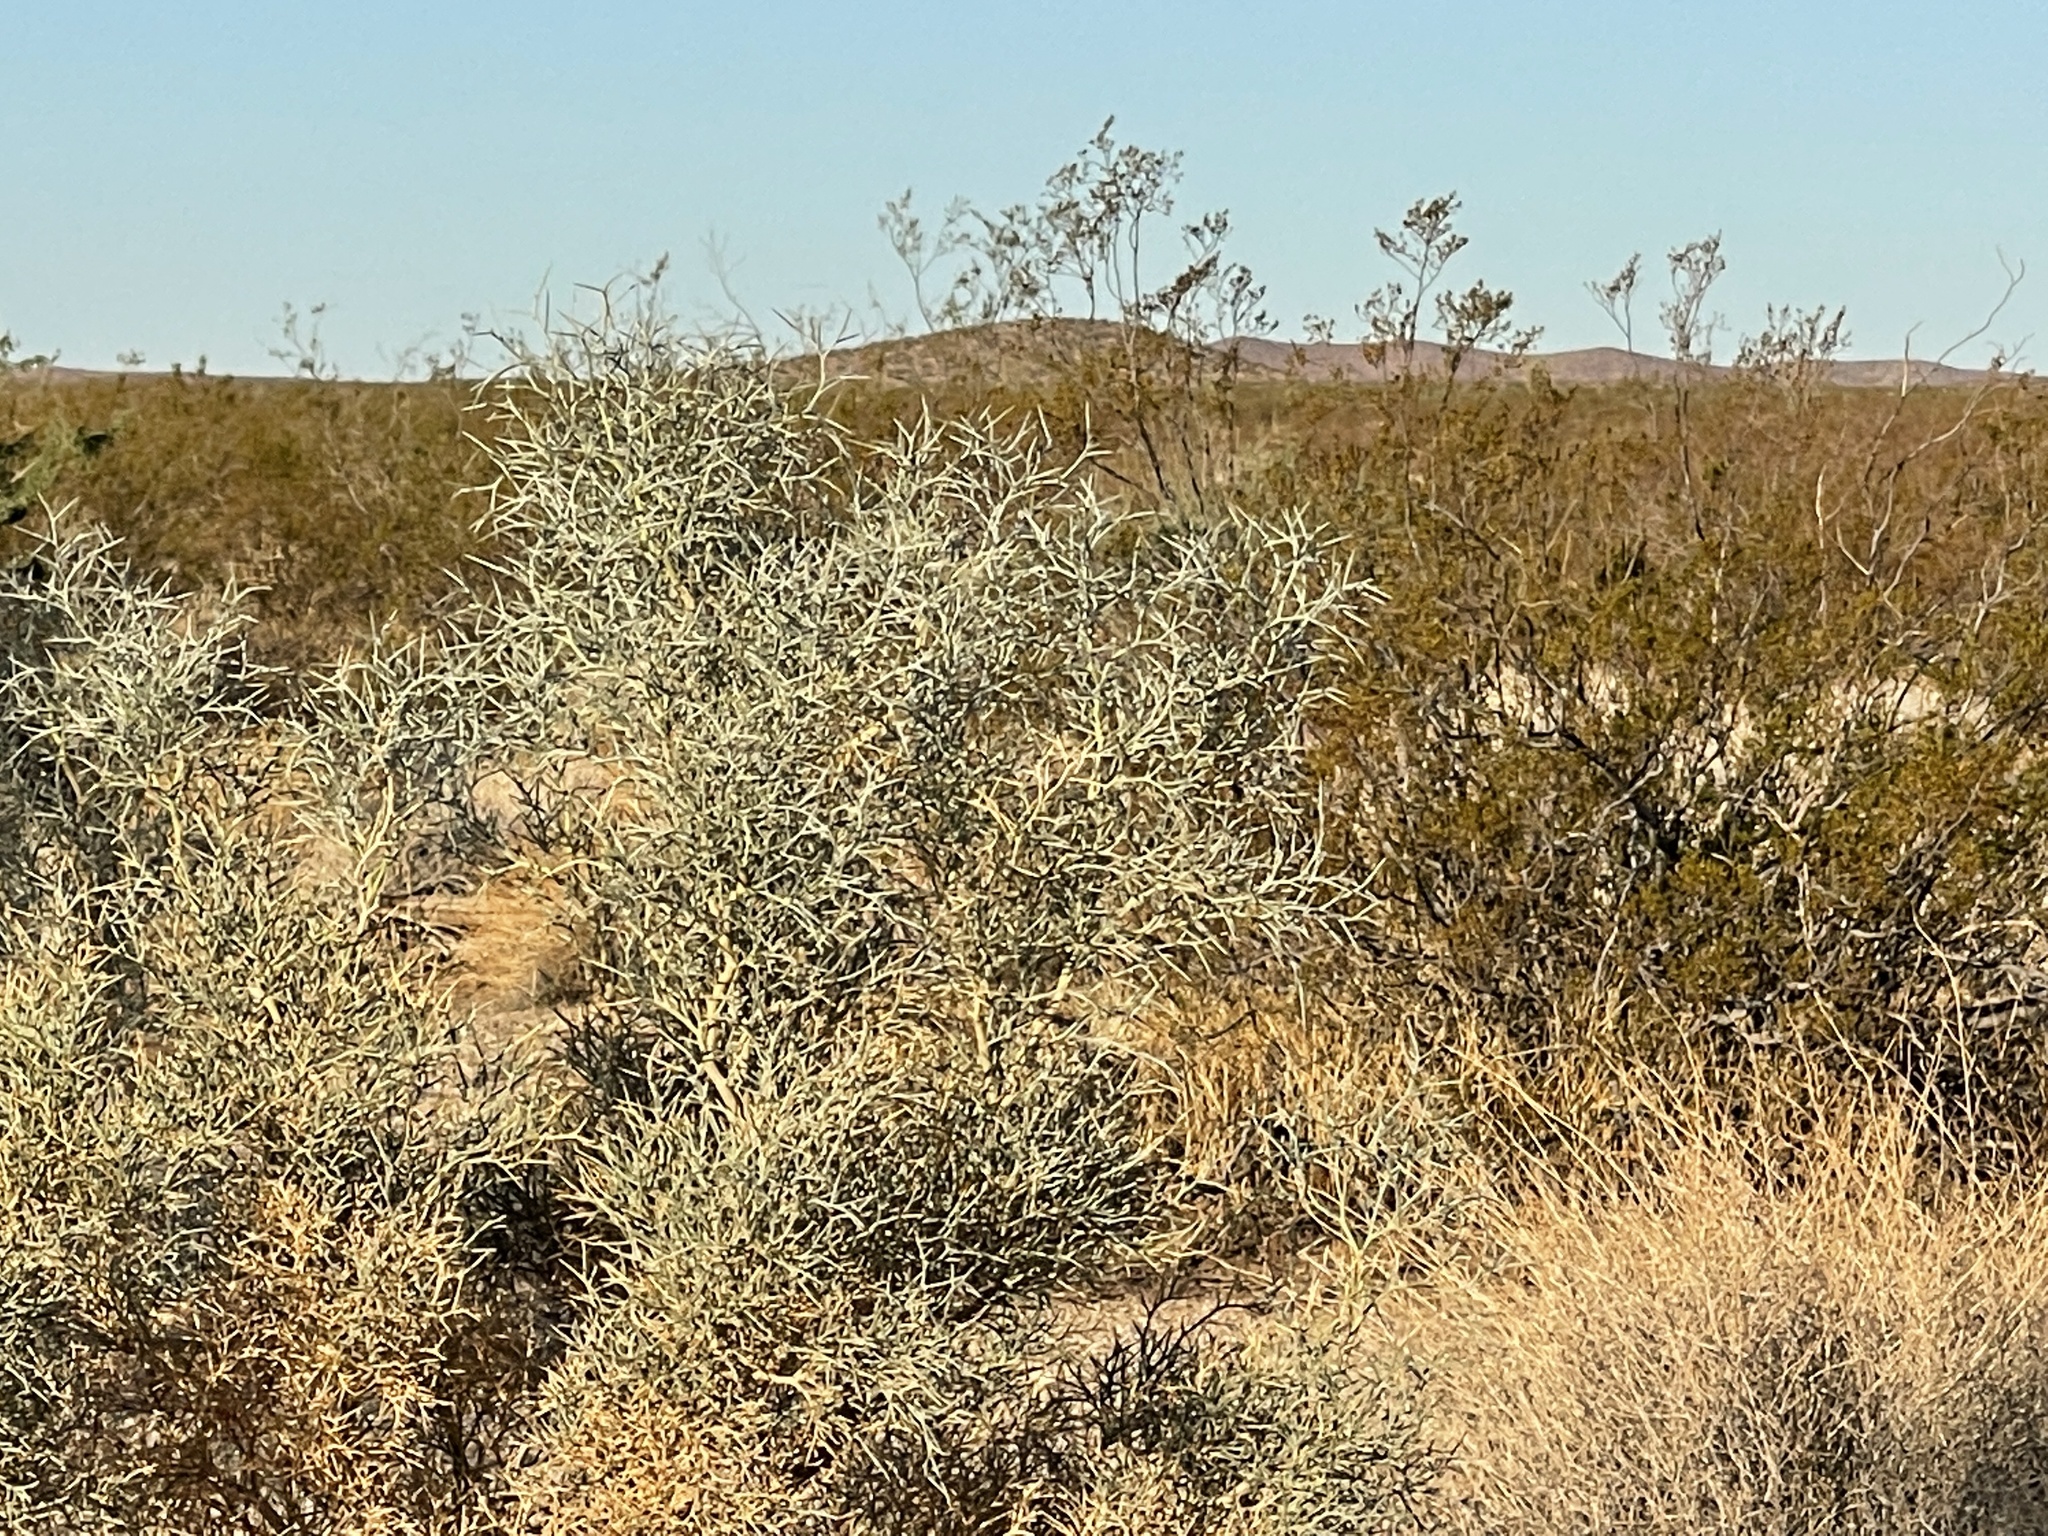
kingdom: Plantae
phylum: Tracheophyta
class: Magnoliopsida
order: Fabales
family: Fabaceae
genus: Psorothamnus
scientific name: Psorothamnus spinosus
